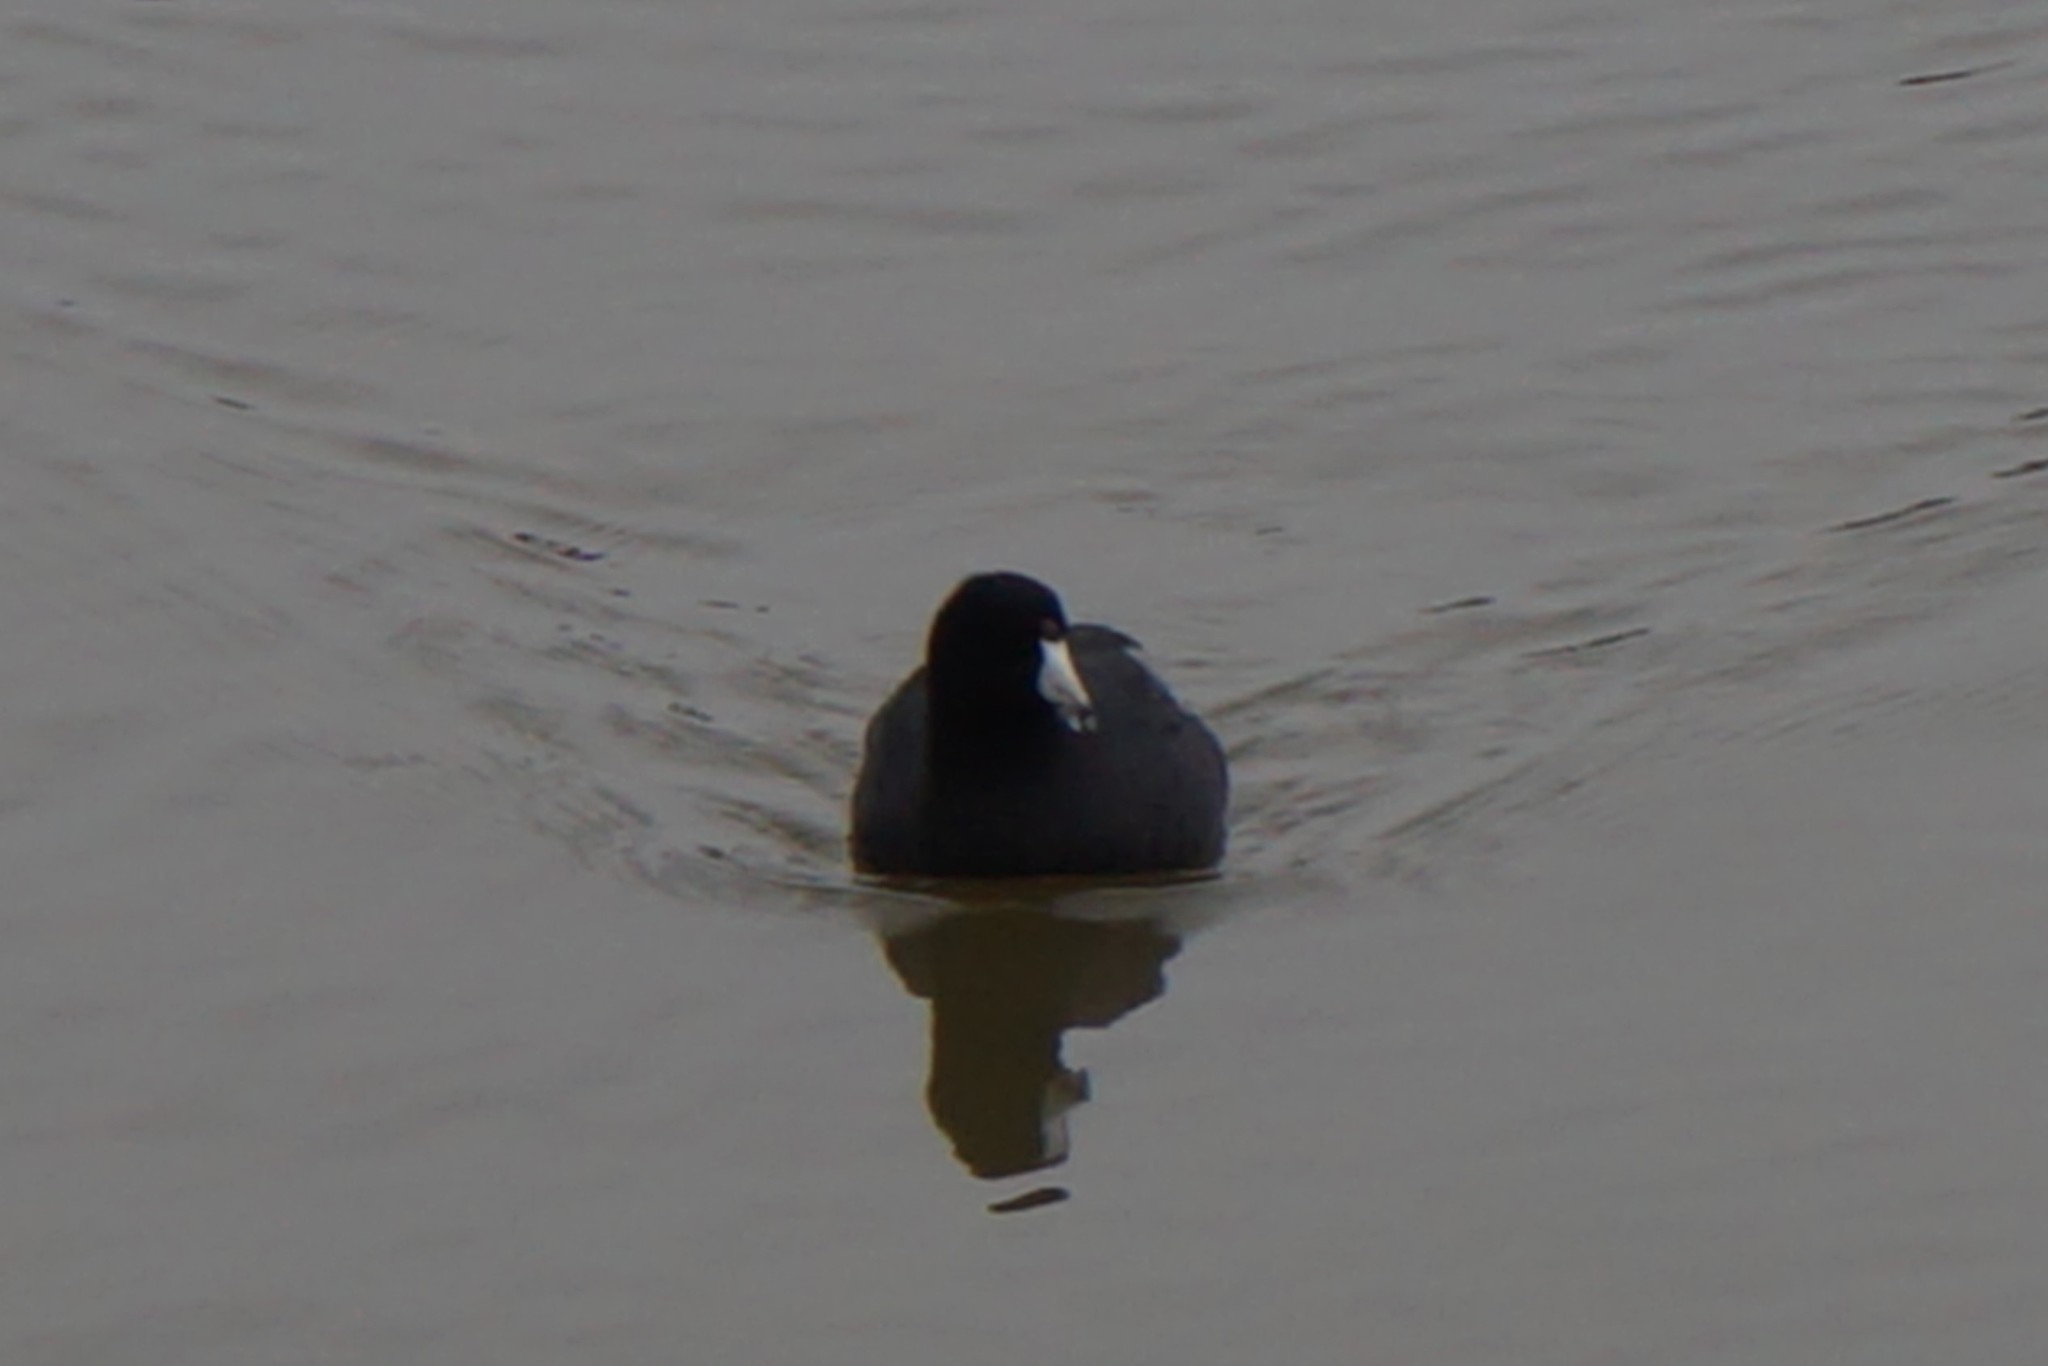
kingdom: Animalia
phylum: Chordata
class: Aves
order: Gruiformes
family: Rallidae
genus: Fulica
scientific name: Fulica americana
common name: American coot
